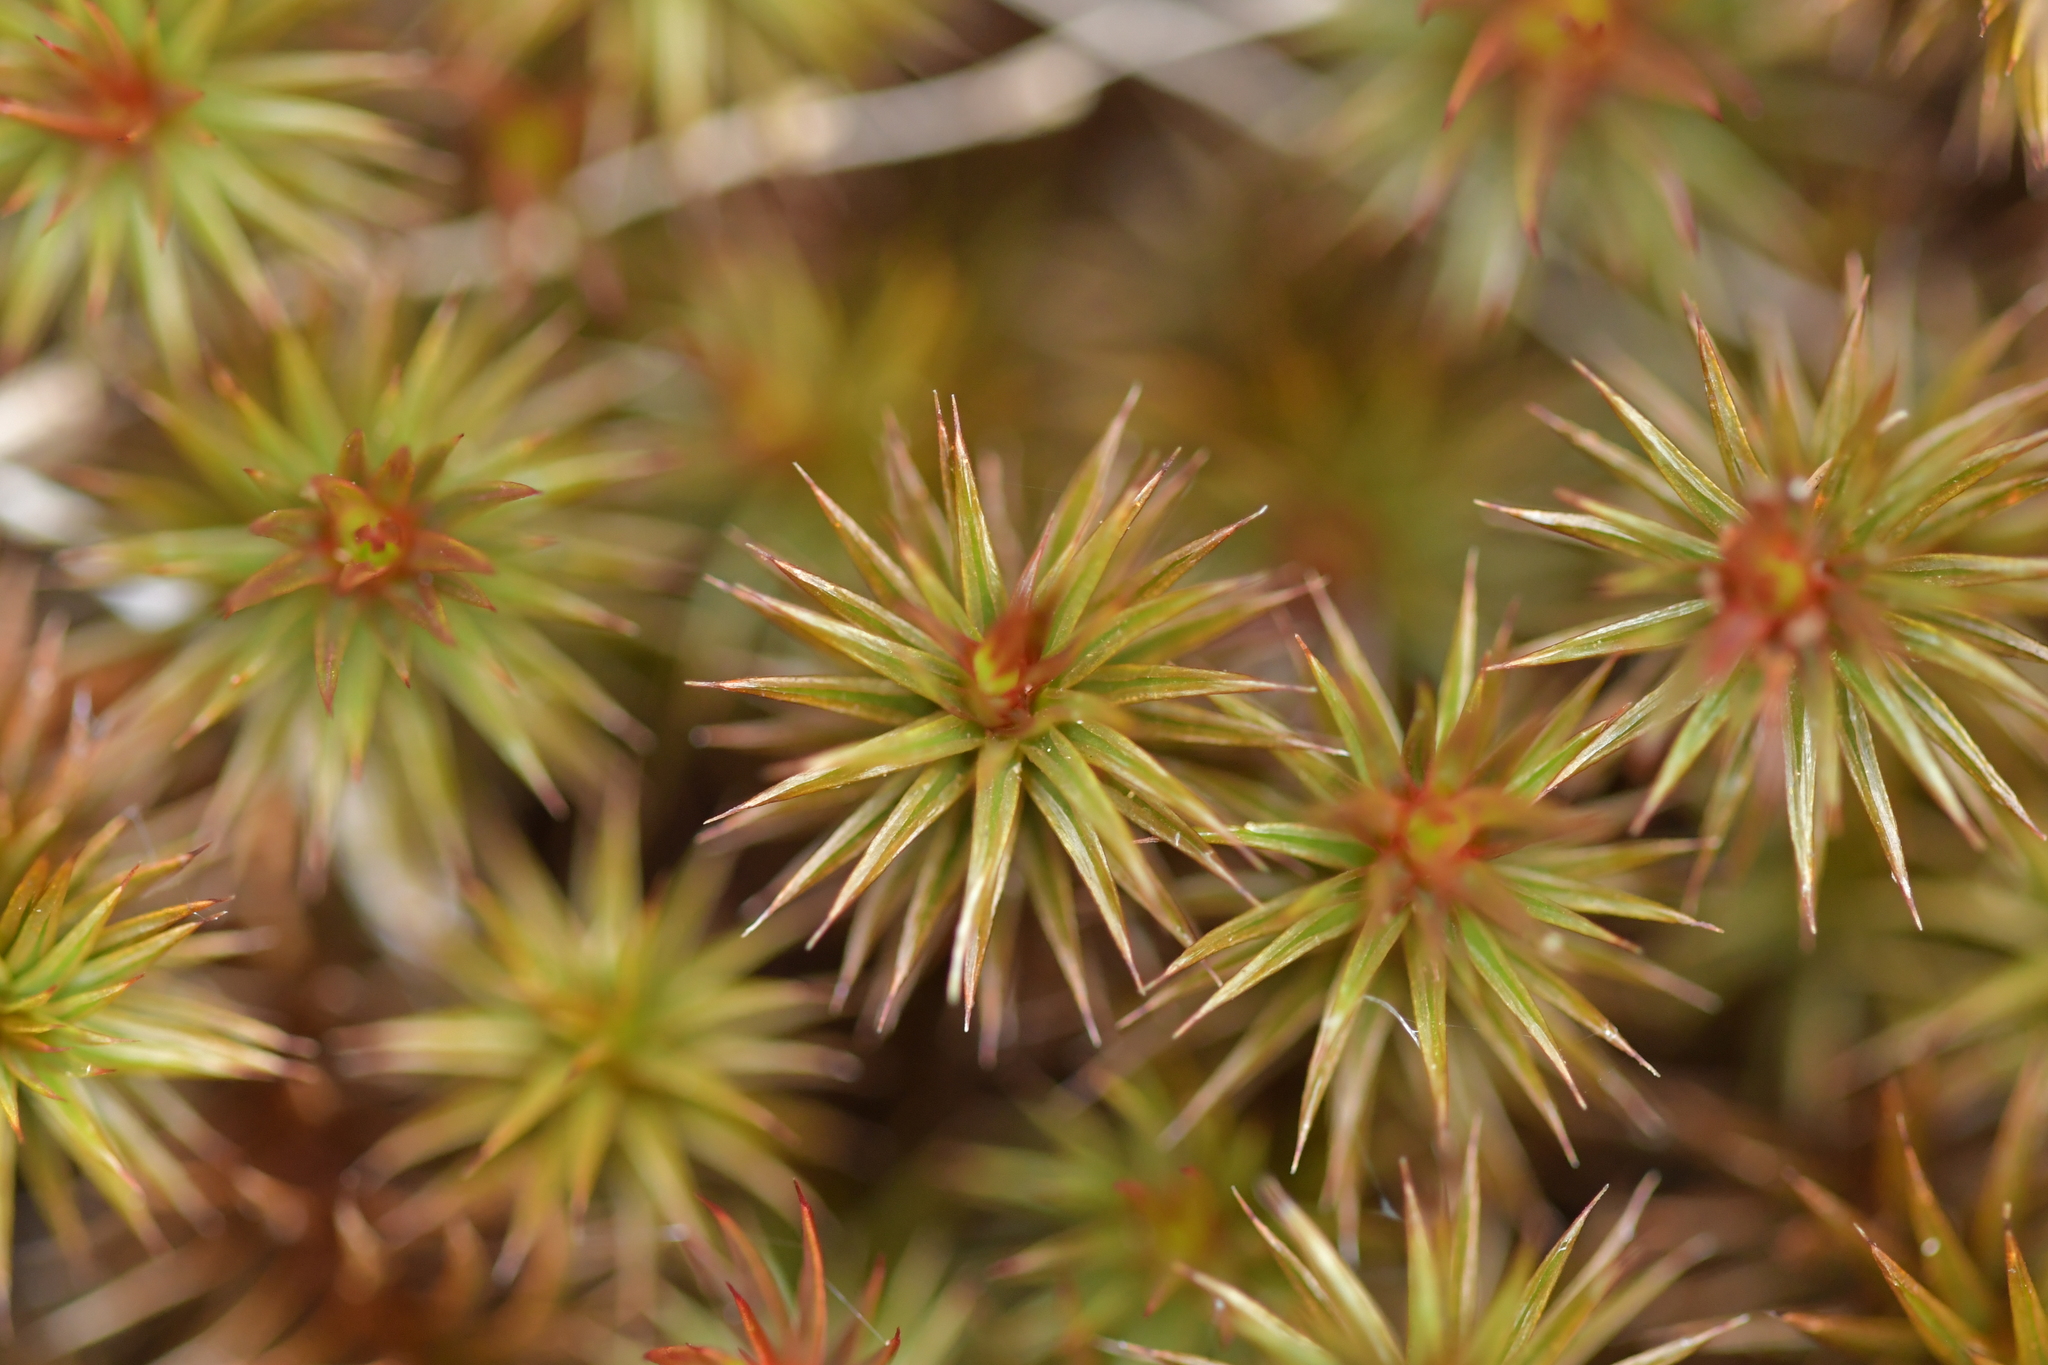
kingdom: Plantae
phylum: Bryophyta
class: Polytrichopsida
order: Polytrichales
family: Polytrichaceae
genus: Polytrichum
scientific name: Polytrichum juniperinum
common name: Juniper haircap moss
